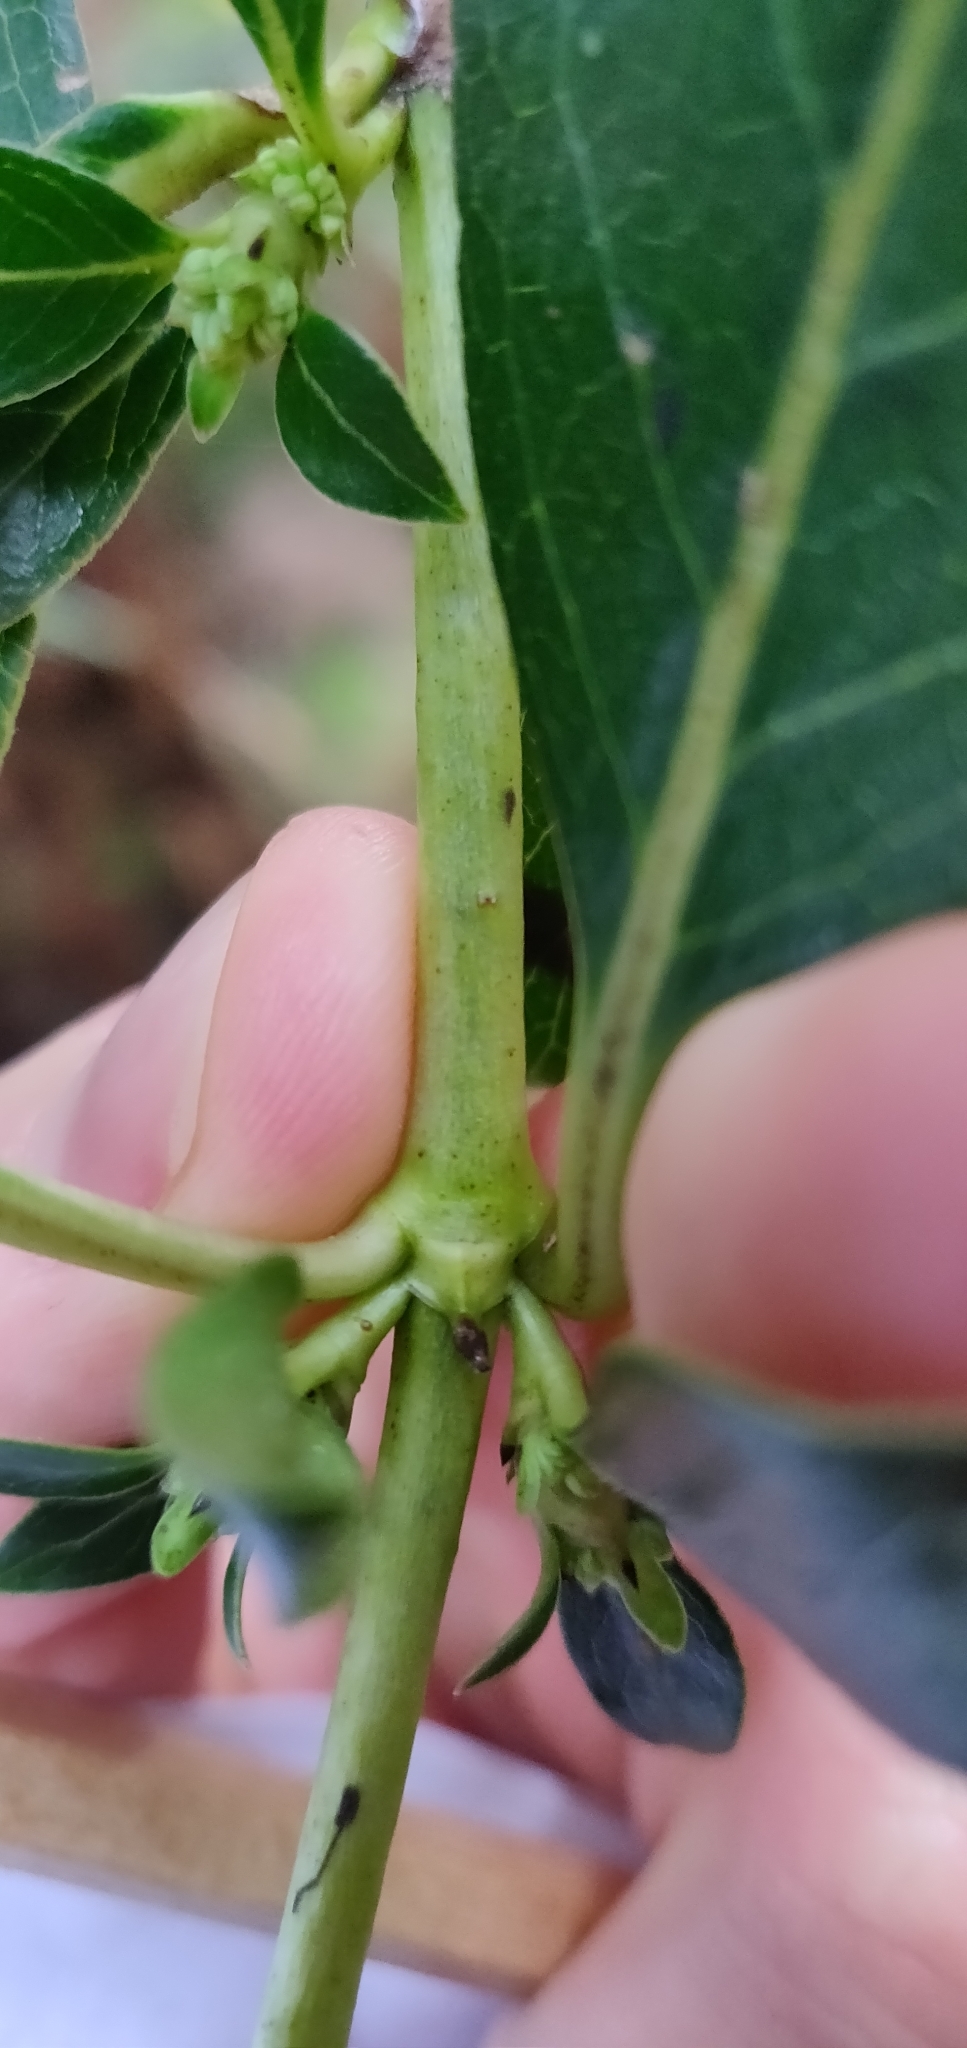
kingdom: Plantae
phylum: Tracheophyta
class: Magnoliopsida
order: Gentianales
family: Rubiaceae
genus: Coprosma
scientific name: Coprosma robusta
